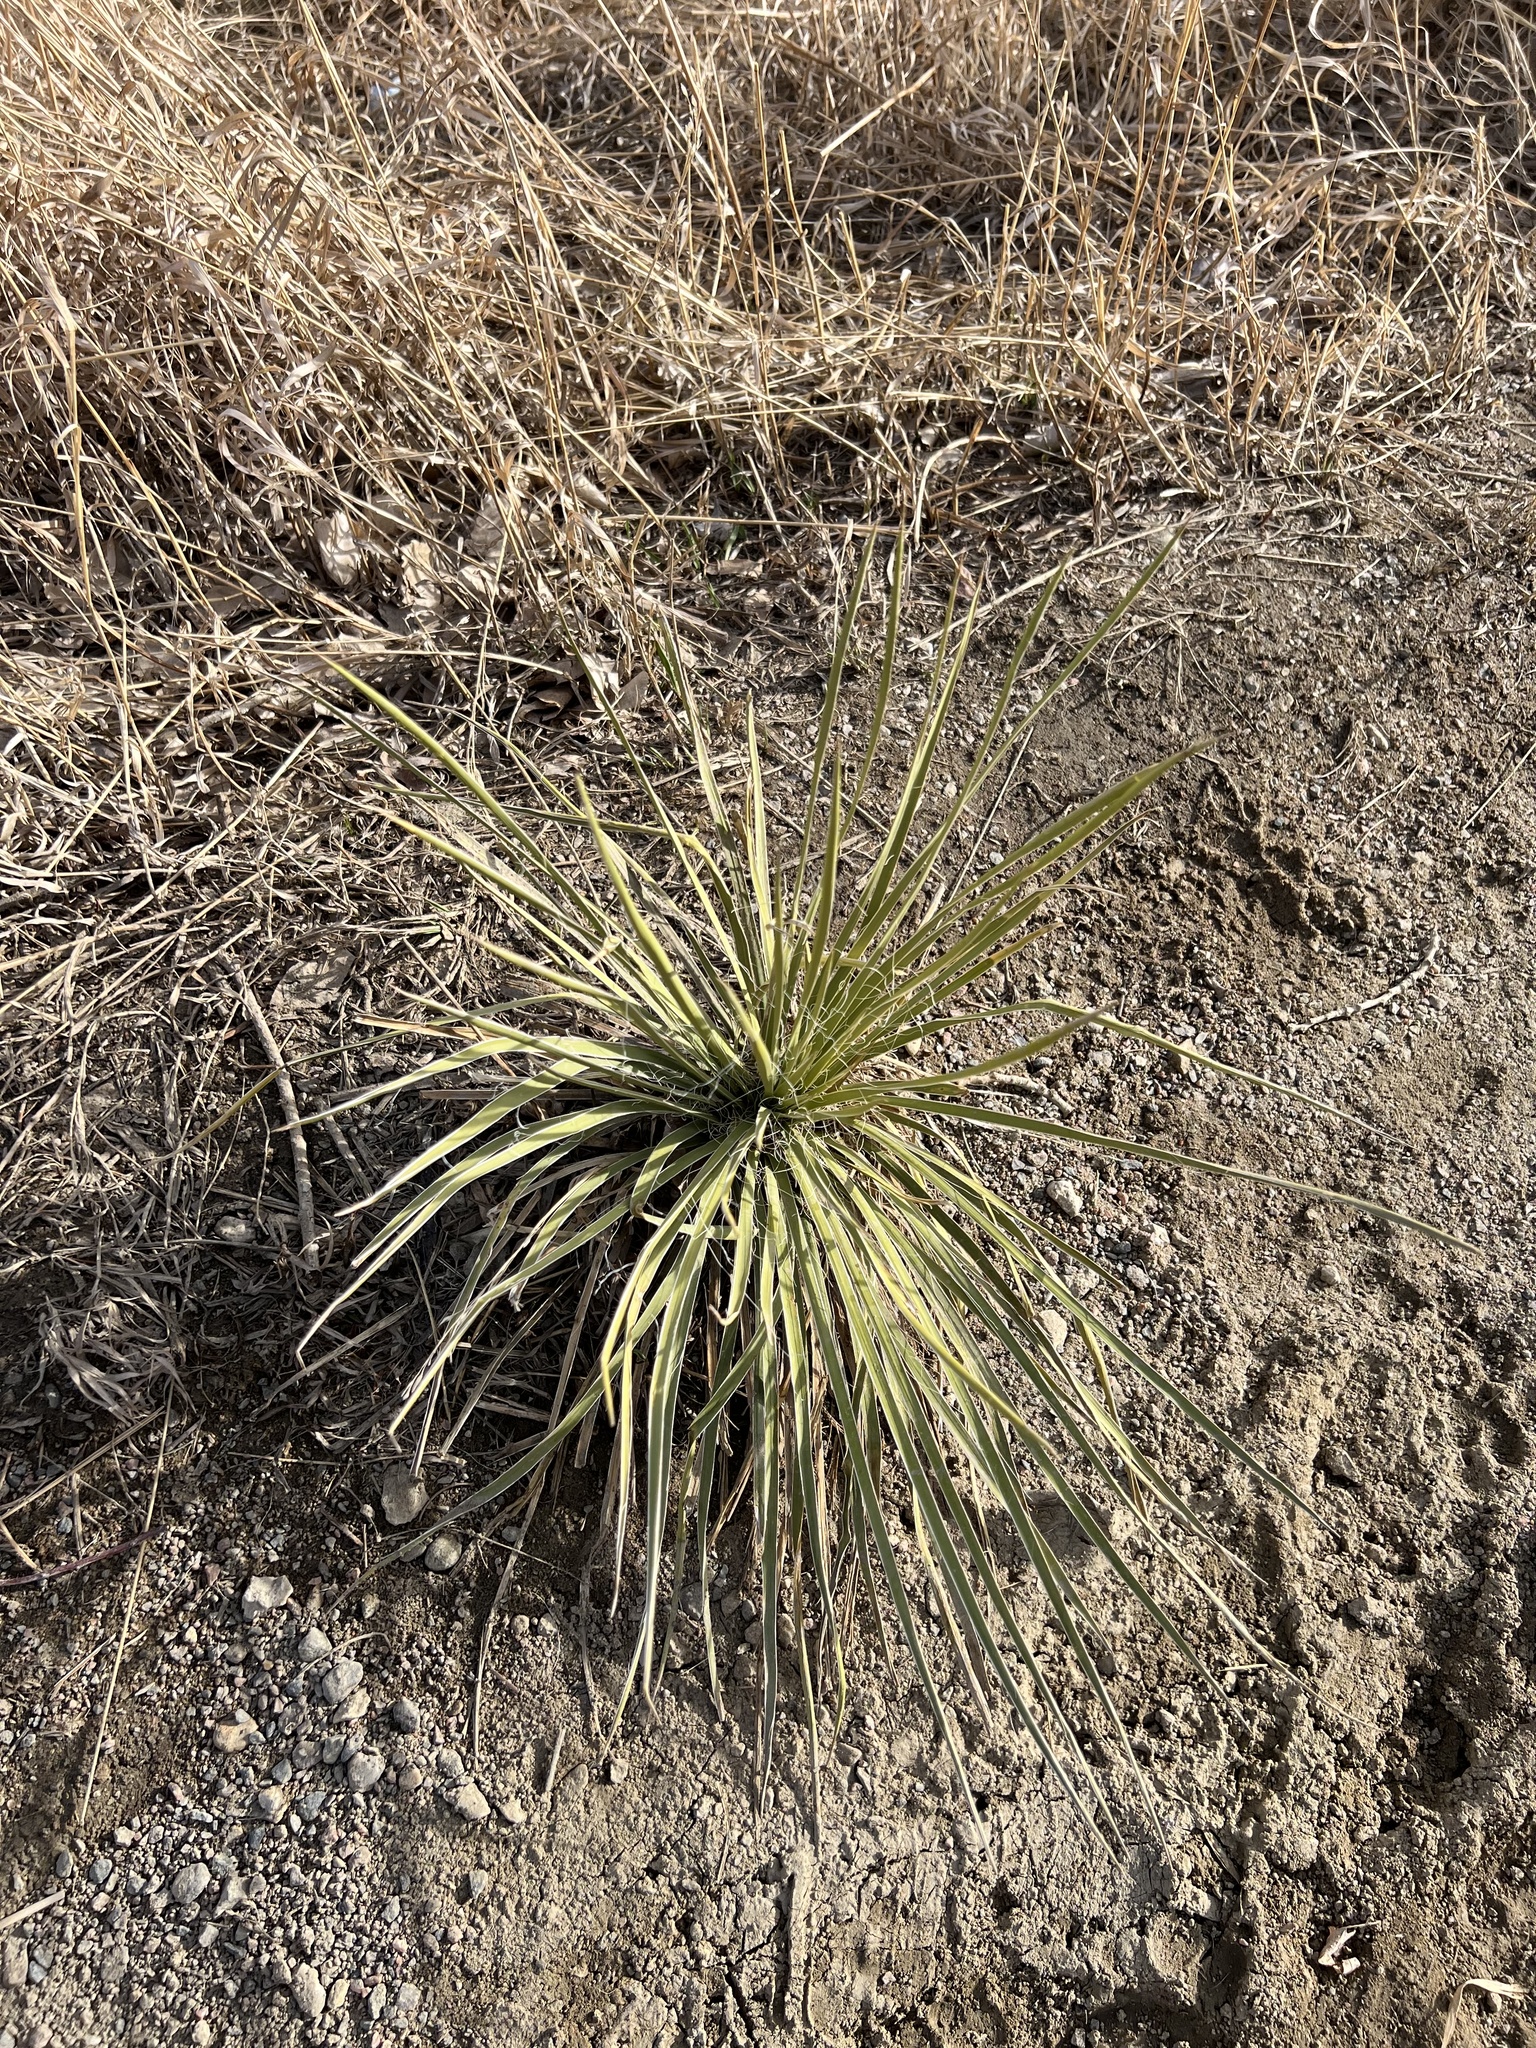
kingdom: Plantae
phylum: Tracheophyta
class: Liliopsida
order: Asparagales
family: Asparagaceae
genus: Yucca
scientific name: Yucca glauca
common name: Great plains yucca
